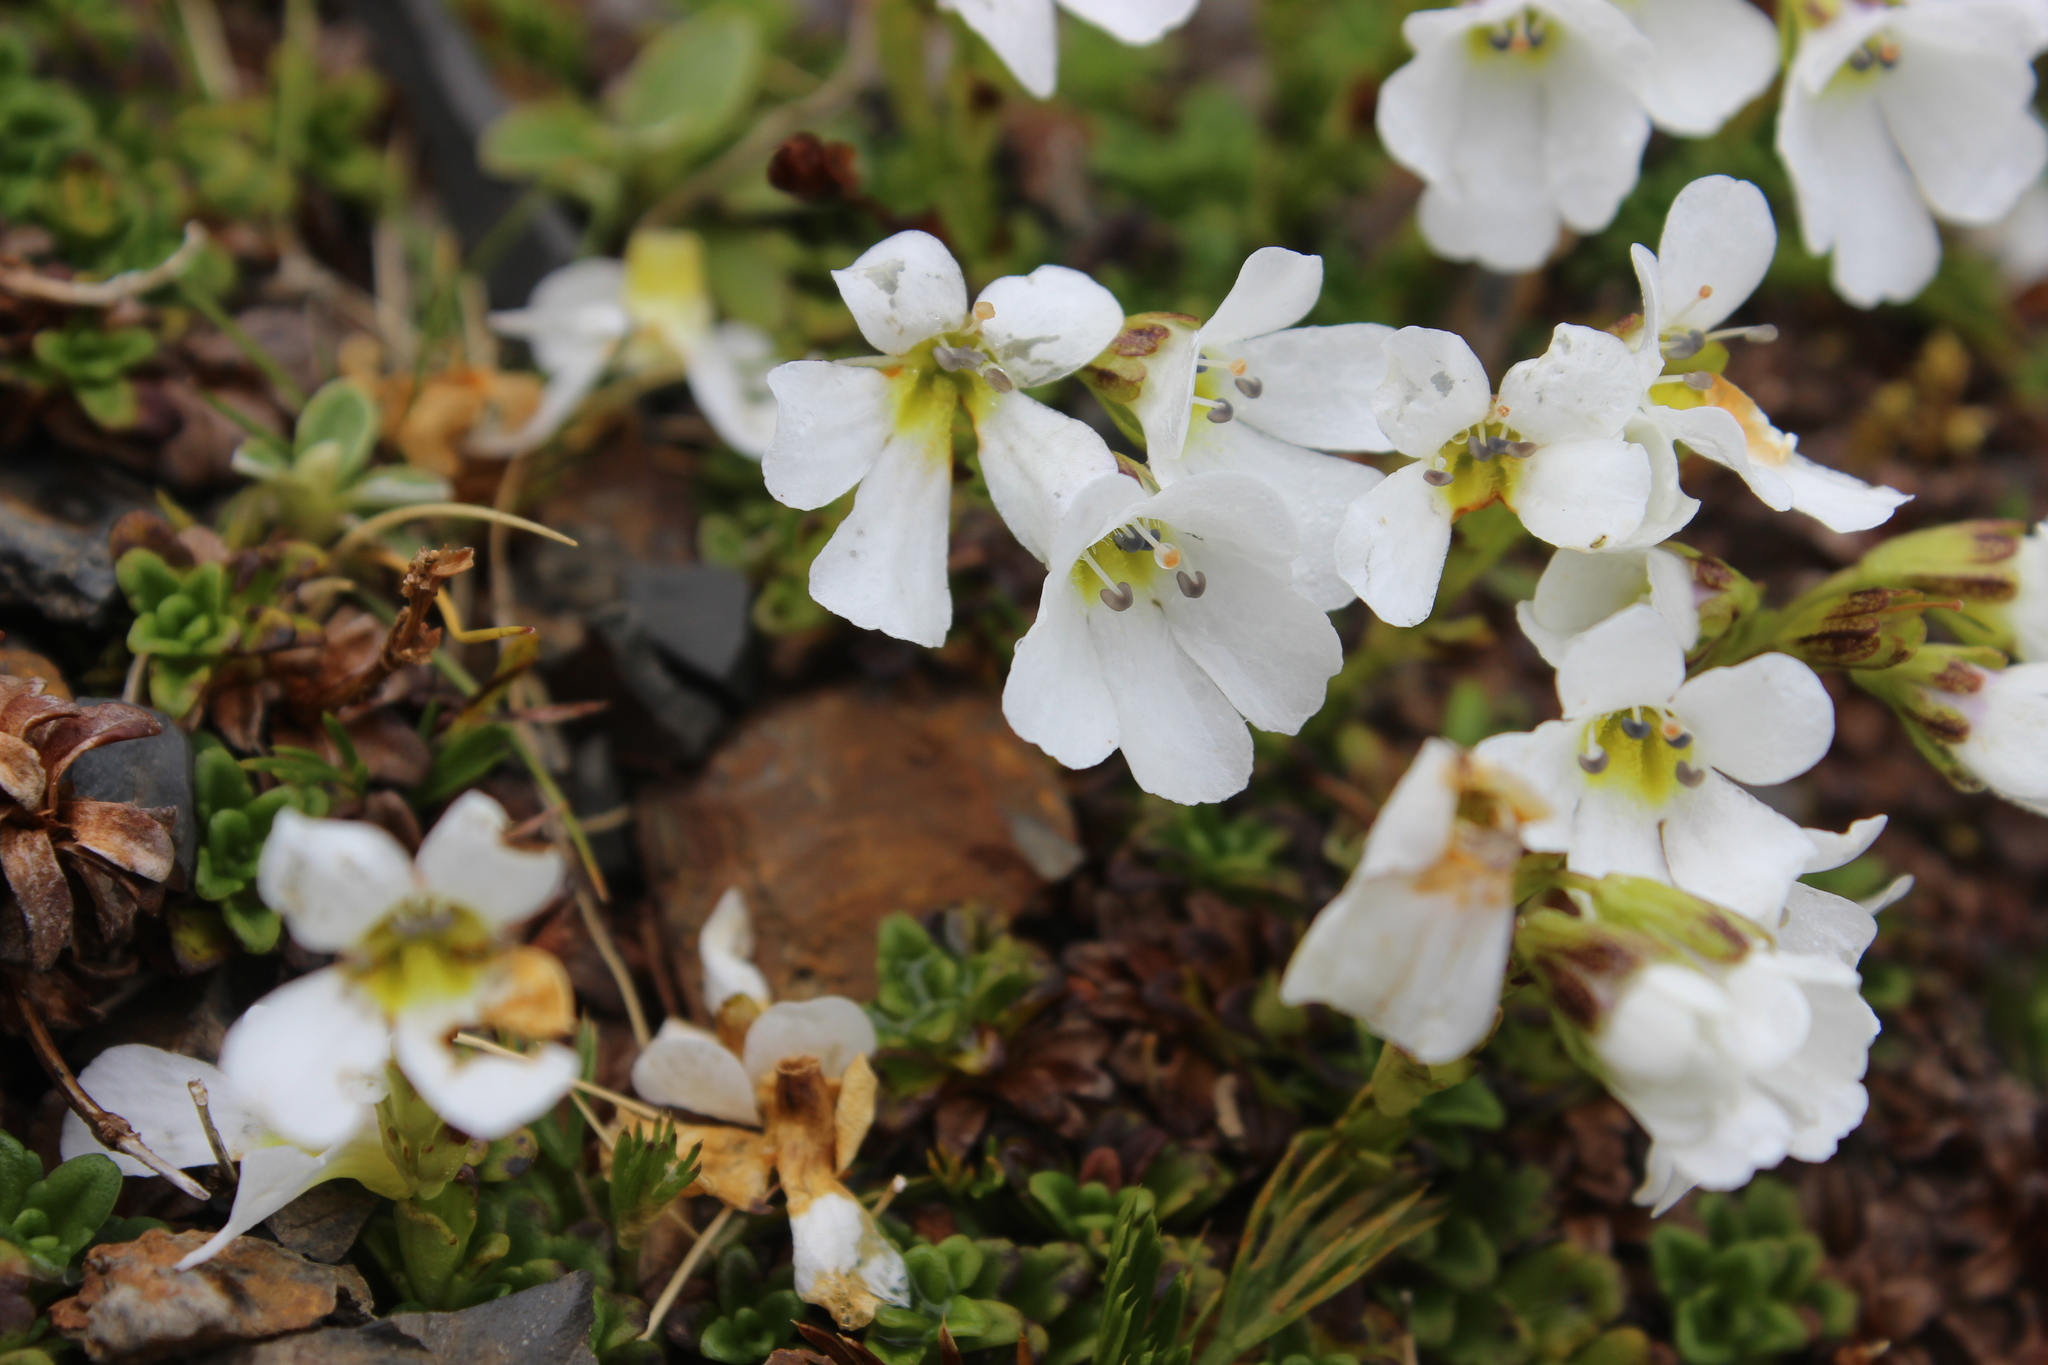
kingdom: Plantae
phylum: Tracheophyta
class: Magnoliopsida
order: Lamiales
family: Plantaginaceae
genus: Ourisia
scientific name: Ourisia caespitosa
